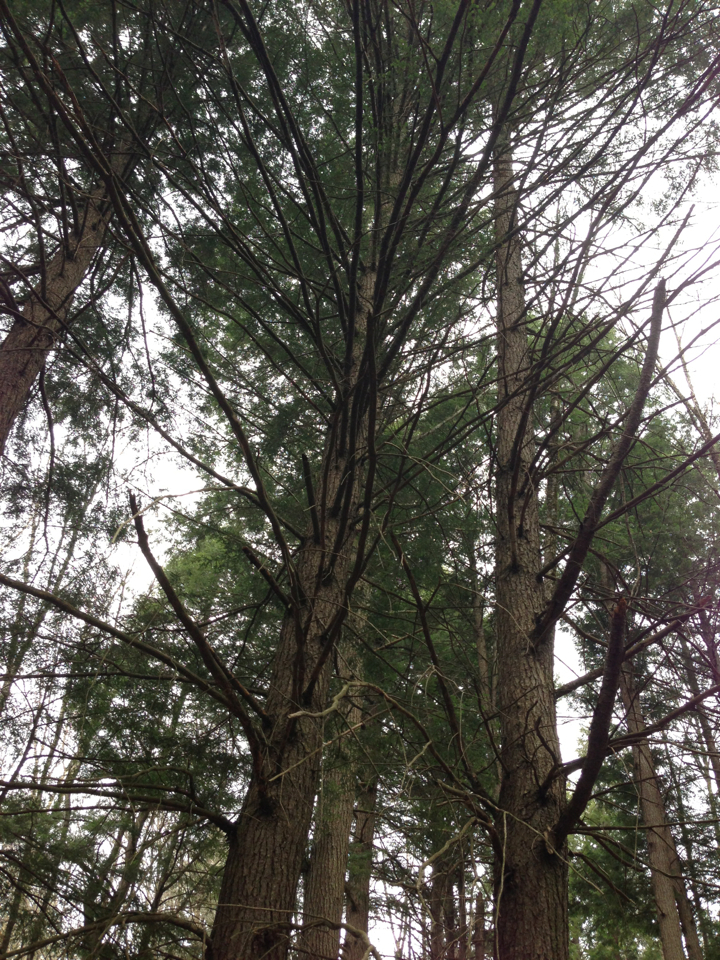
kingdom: Plantae
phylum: Tracheophyta
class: Pinopsida
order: Pinales
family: Pinaceae
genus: Tsuga
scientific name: Tsuga canadensis
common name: Eastern hemlock
